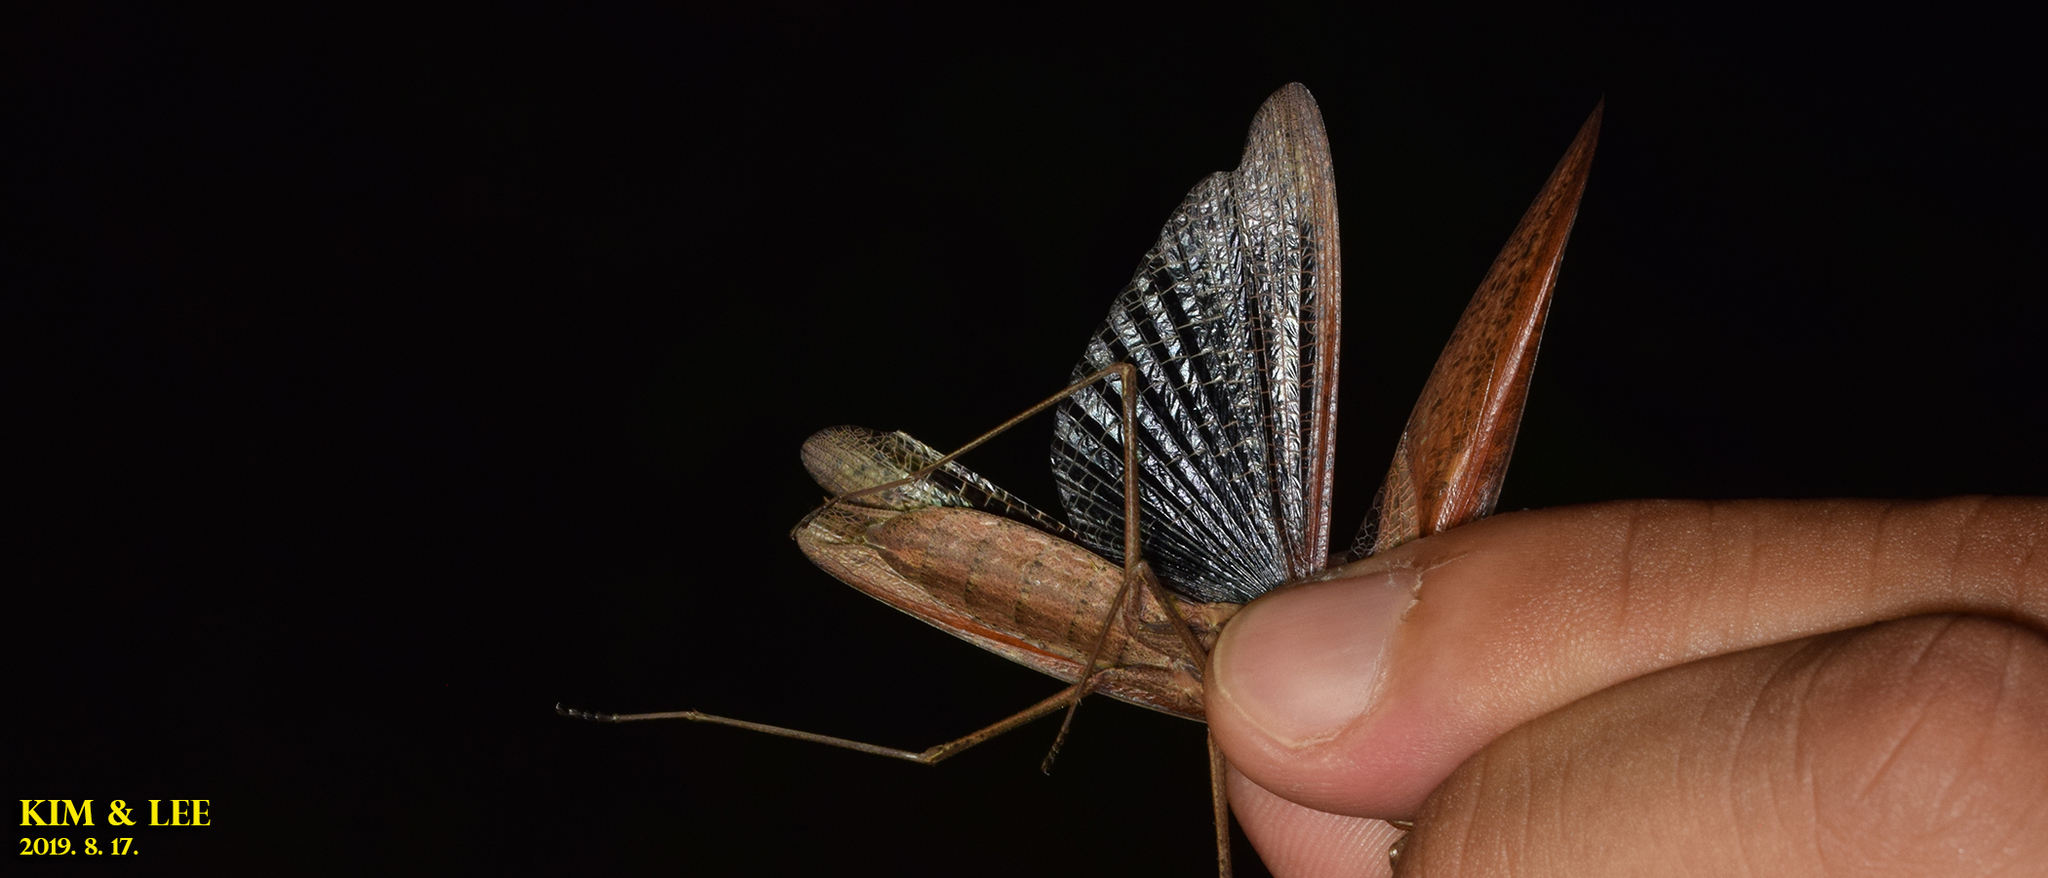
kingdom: Animalia
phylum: Arthropoda
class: Insecta
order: Mantodea
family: Mantidae
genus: Statilia
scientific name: Statilia maculata
